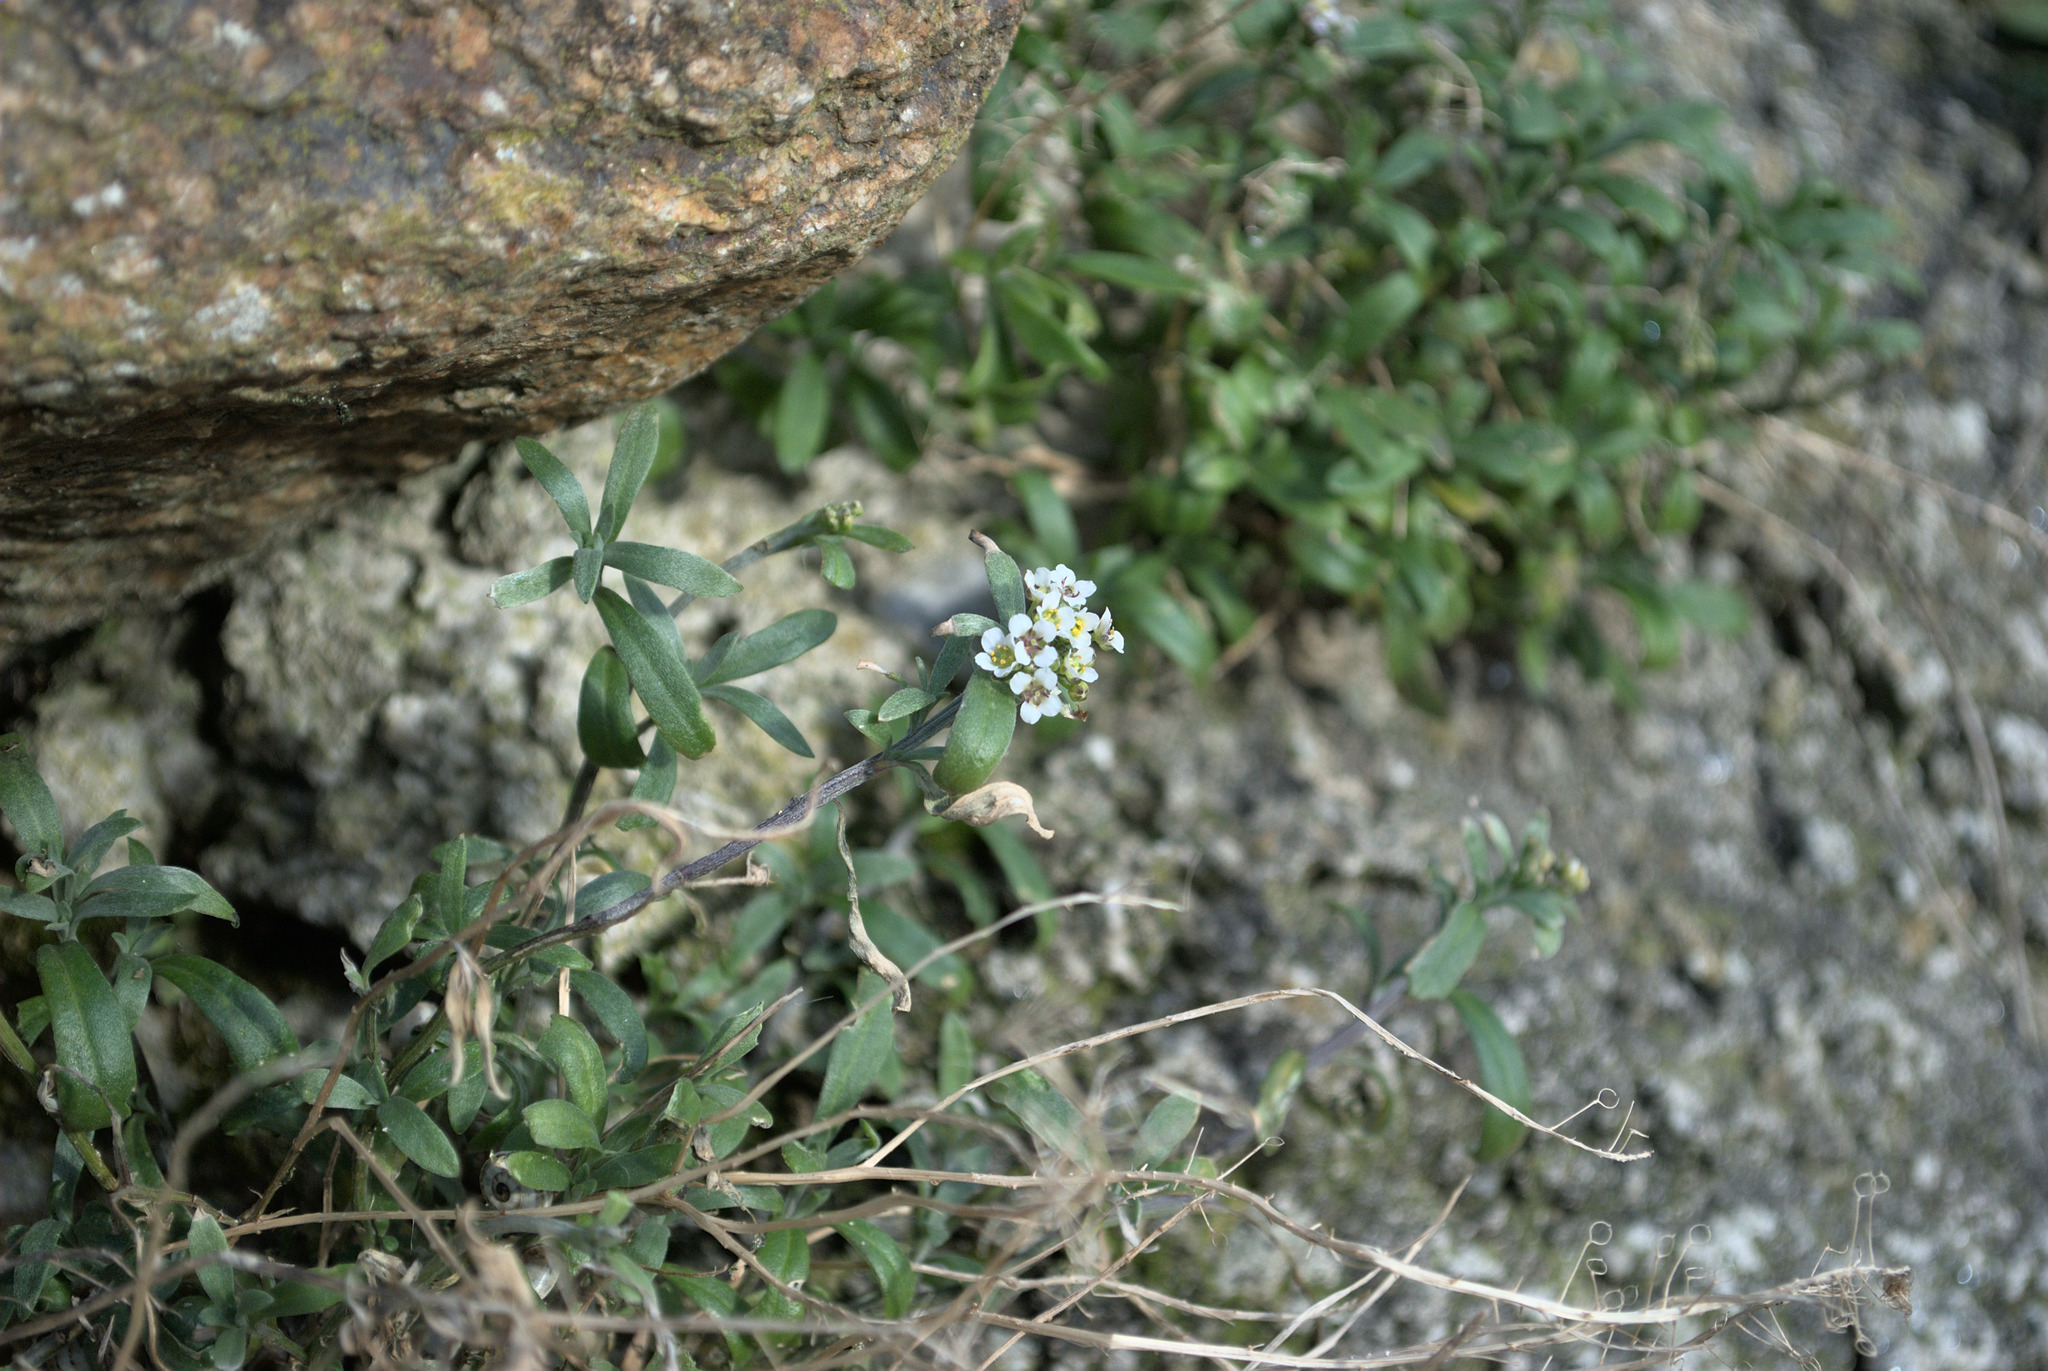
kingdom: Plantae
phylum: Tracheophyta
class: Magnoliopsida
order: Brassicales
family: Brassicaceae
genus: Lobularia
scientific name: Lobularia maritima
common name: Sweet alison
